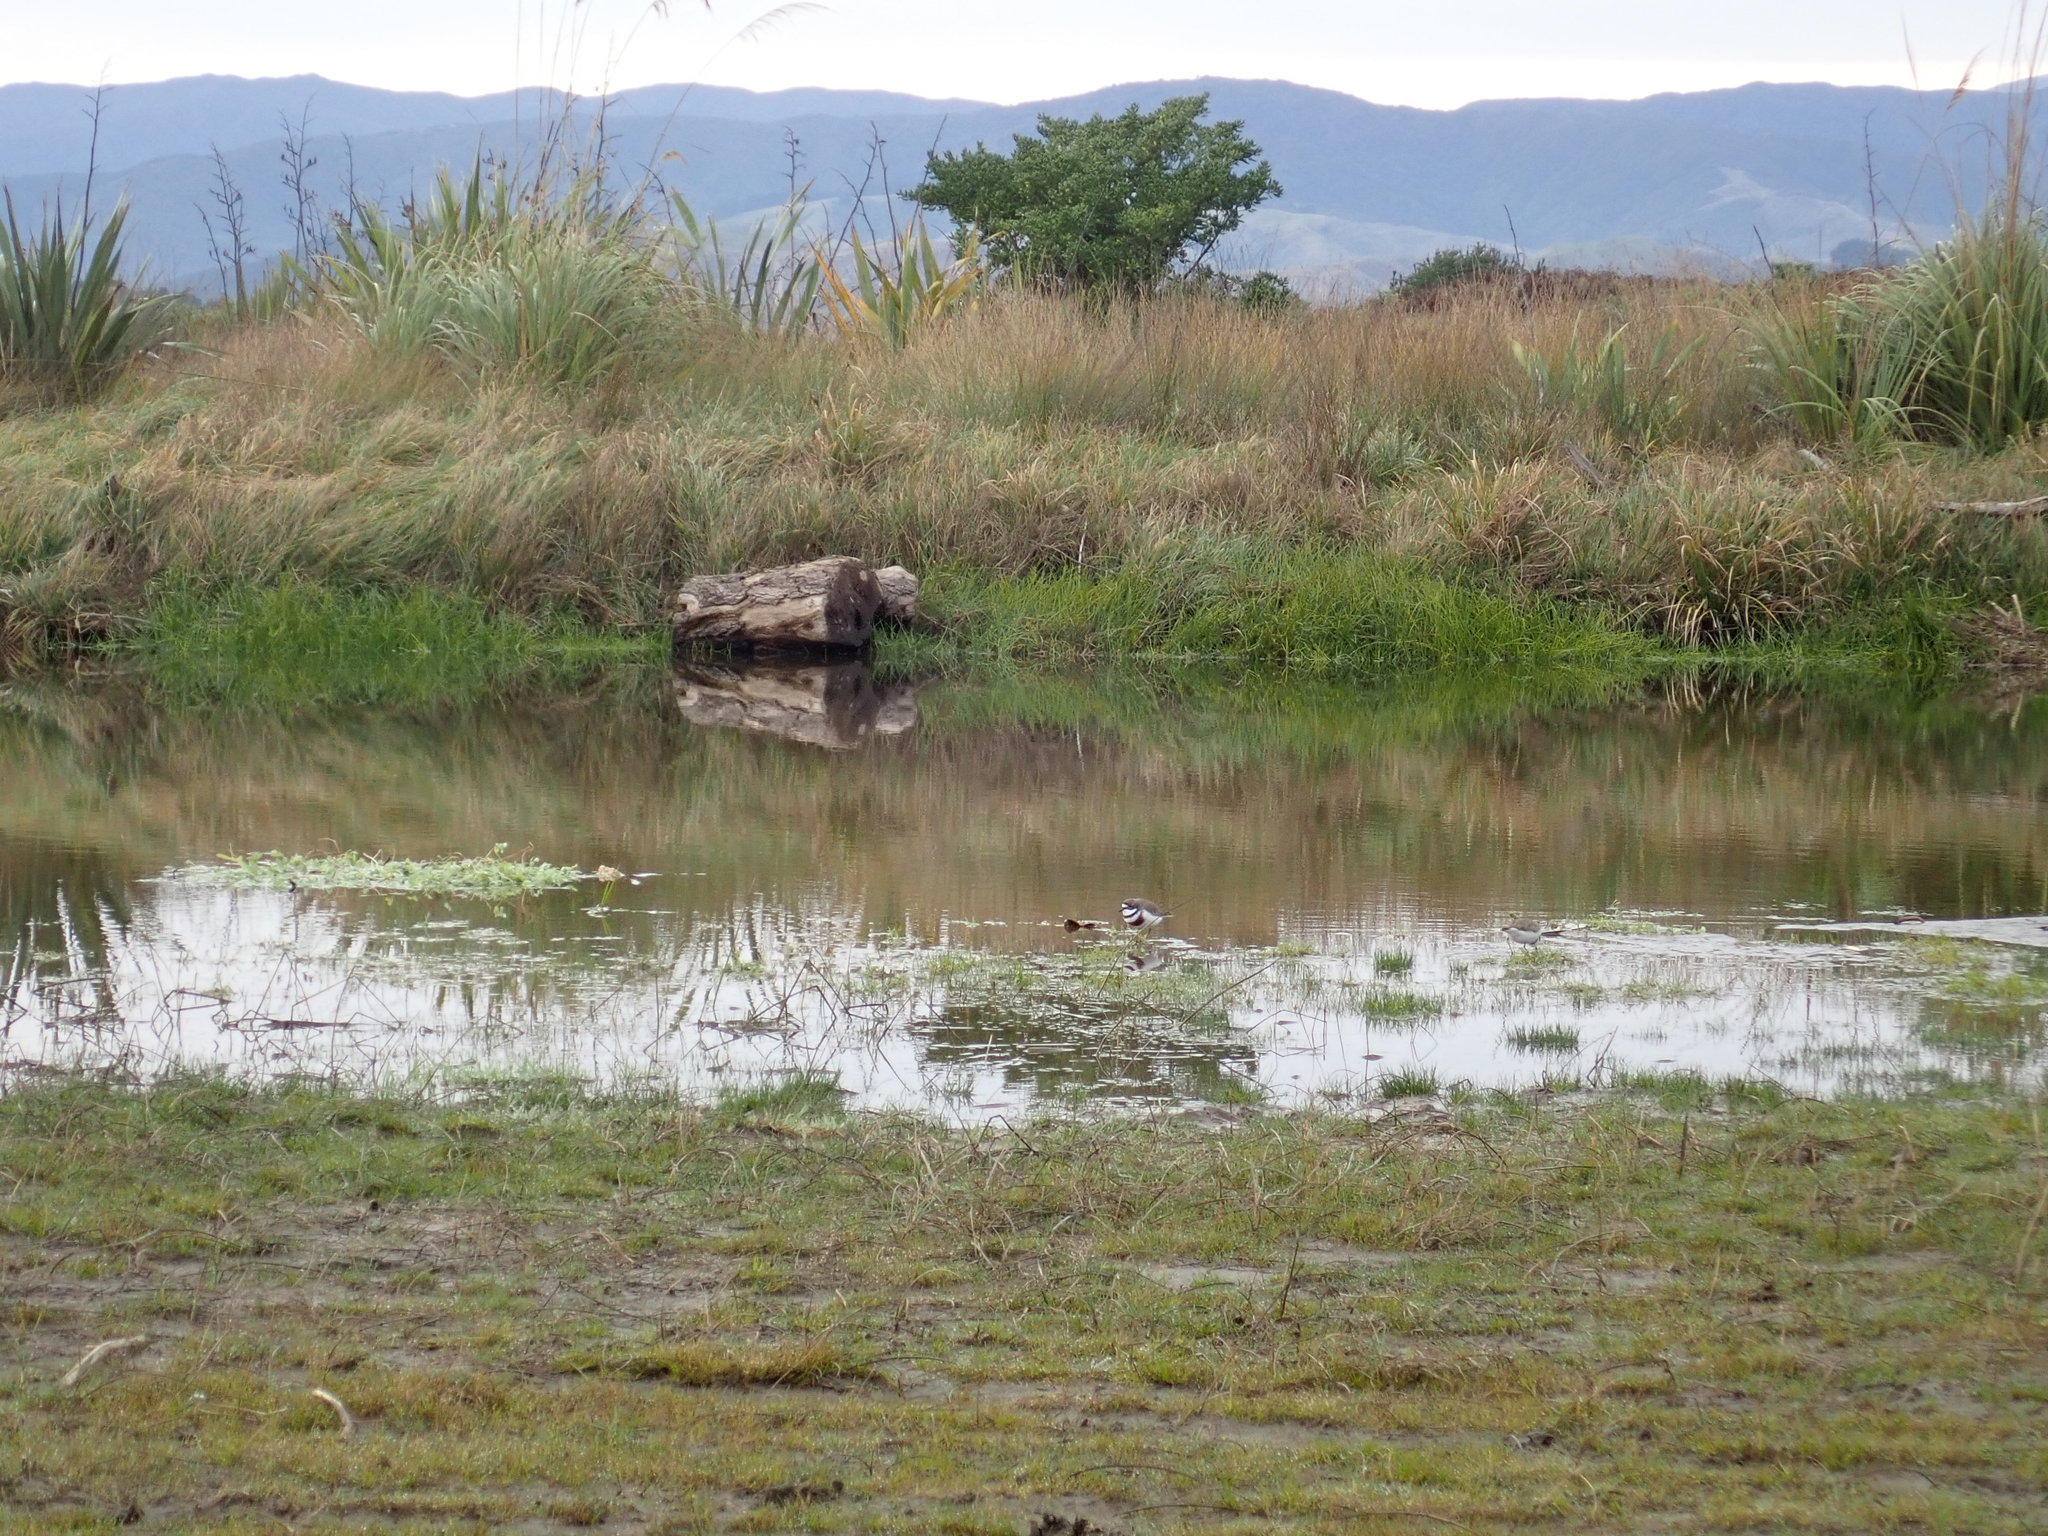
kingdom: Animalia
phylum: Chordata
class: Aves
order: Charadriiformes
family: Charadriidae
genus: Anarhynchus
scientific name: Anarhynchus
